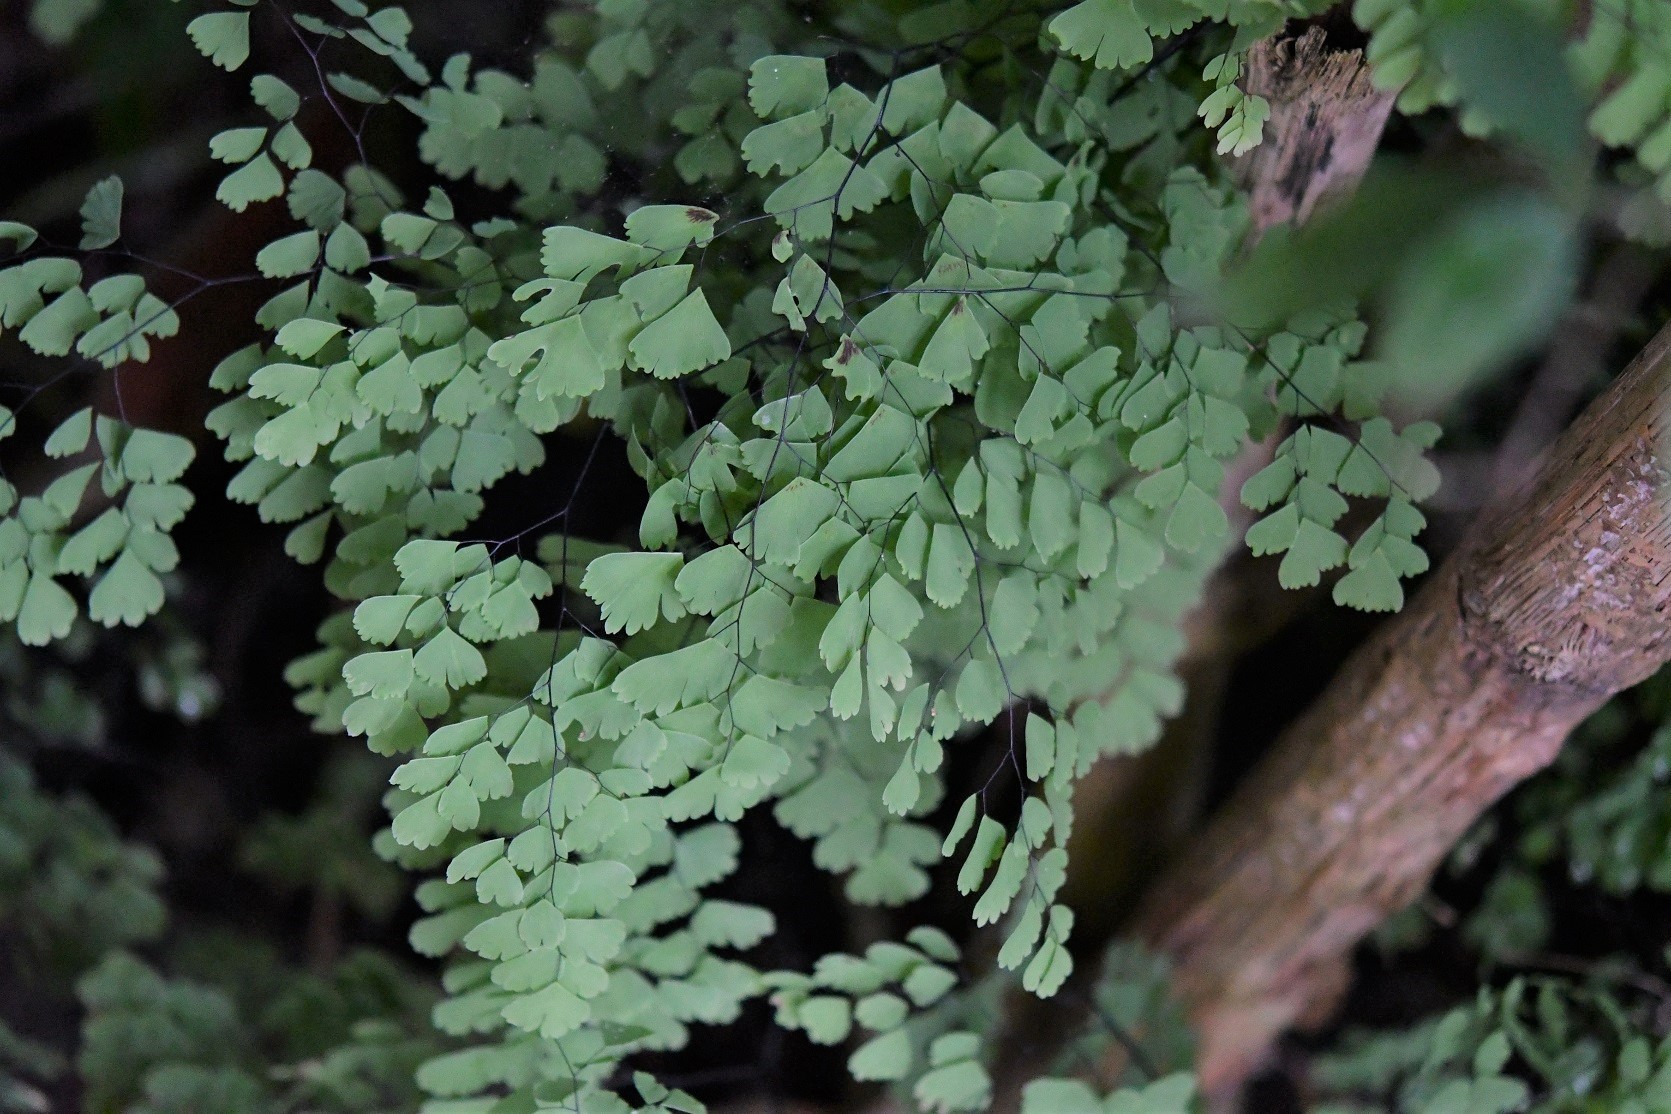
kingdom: Plantae
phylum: Tracheophyta
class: Polypodiopsida
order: Polypodiales
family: Pteridaceae
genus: Adiantum
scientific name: Adiantum andicola
